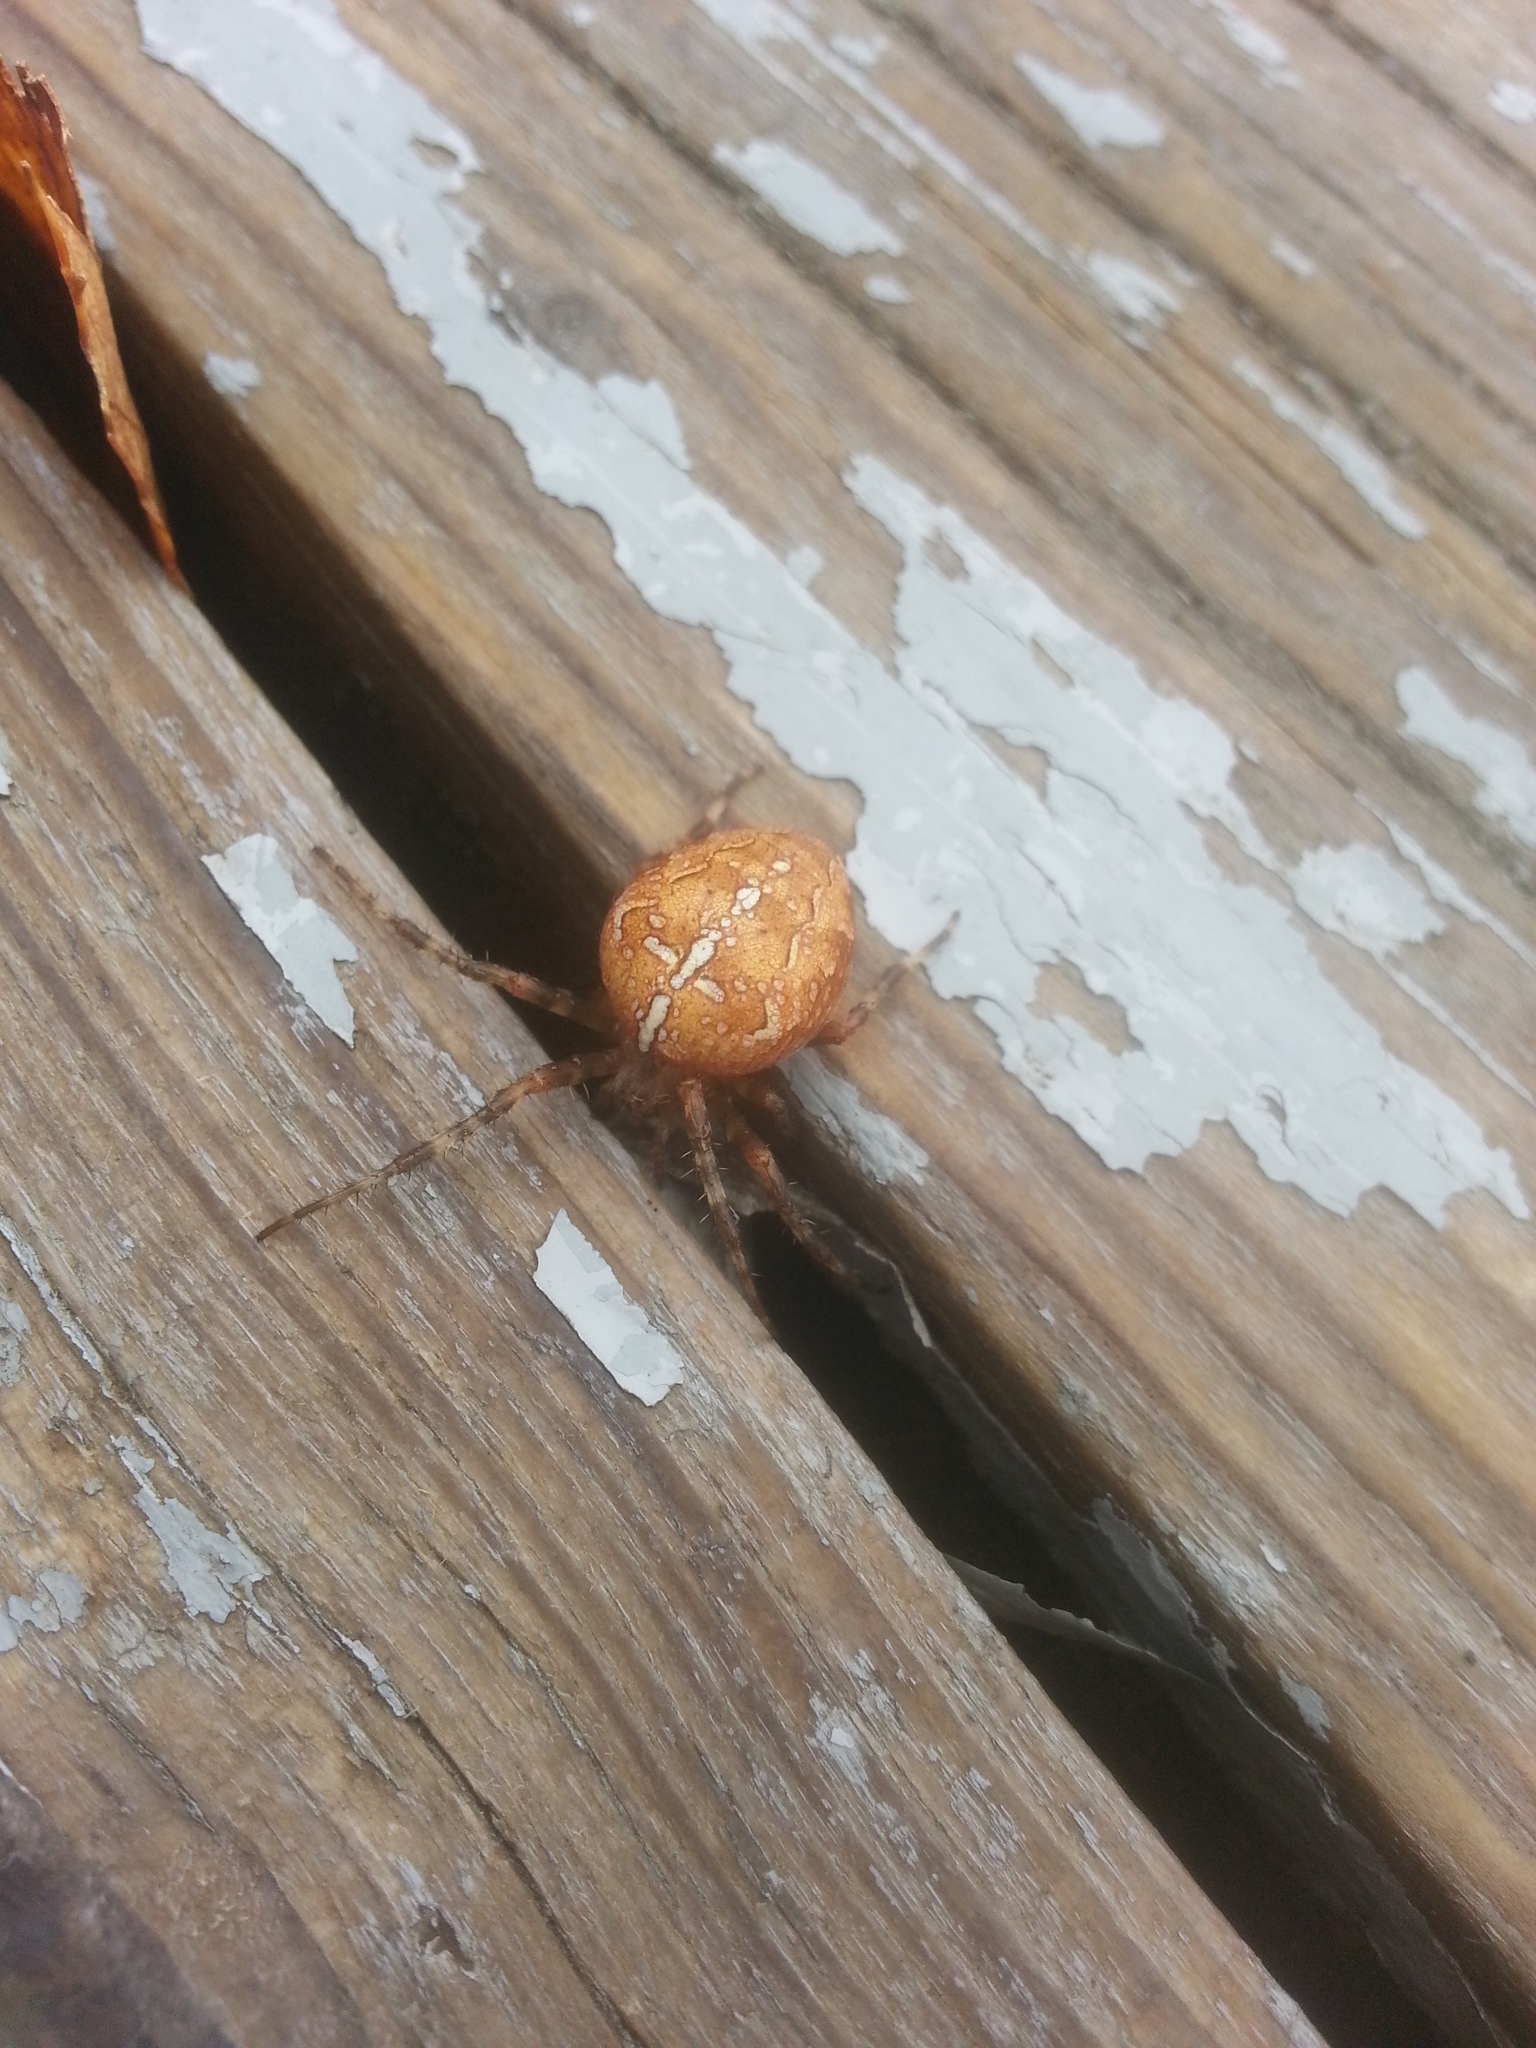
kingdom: Animalia
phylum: Arthropoda
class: Arachnida
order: Araneae
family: Araneidae
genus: Araneus
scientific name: Araneus diadematus
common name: Cross orbweaver
